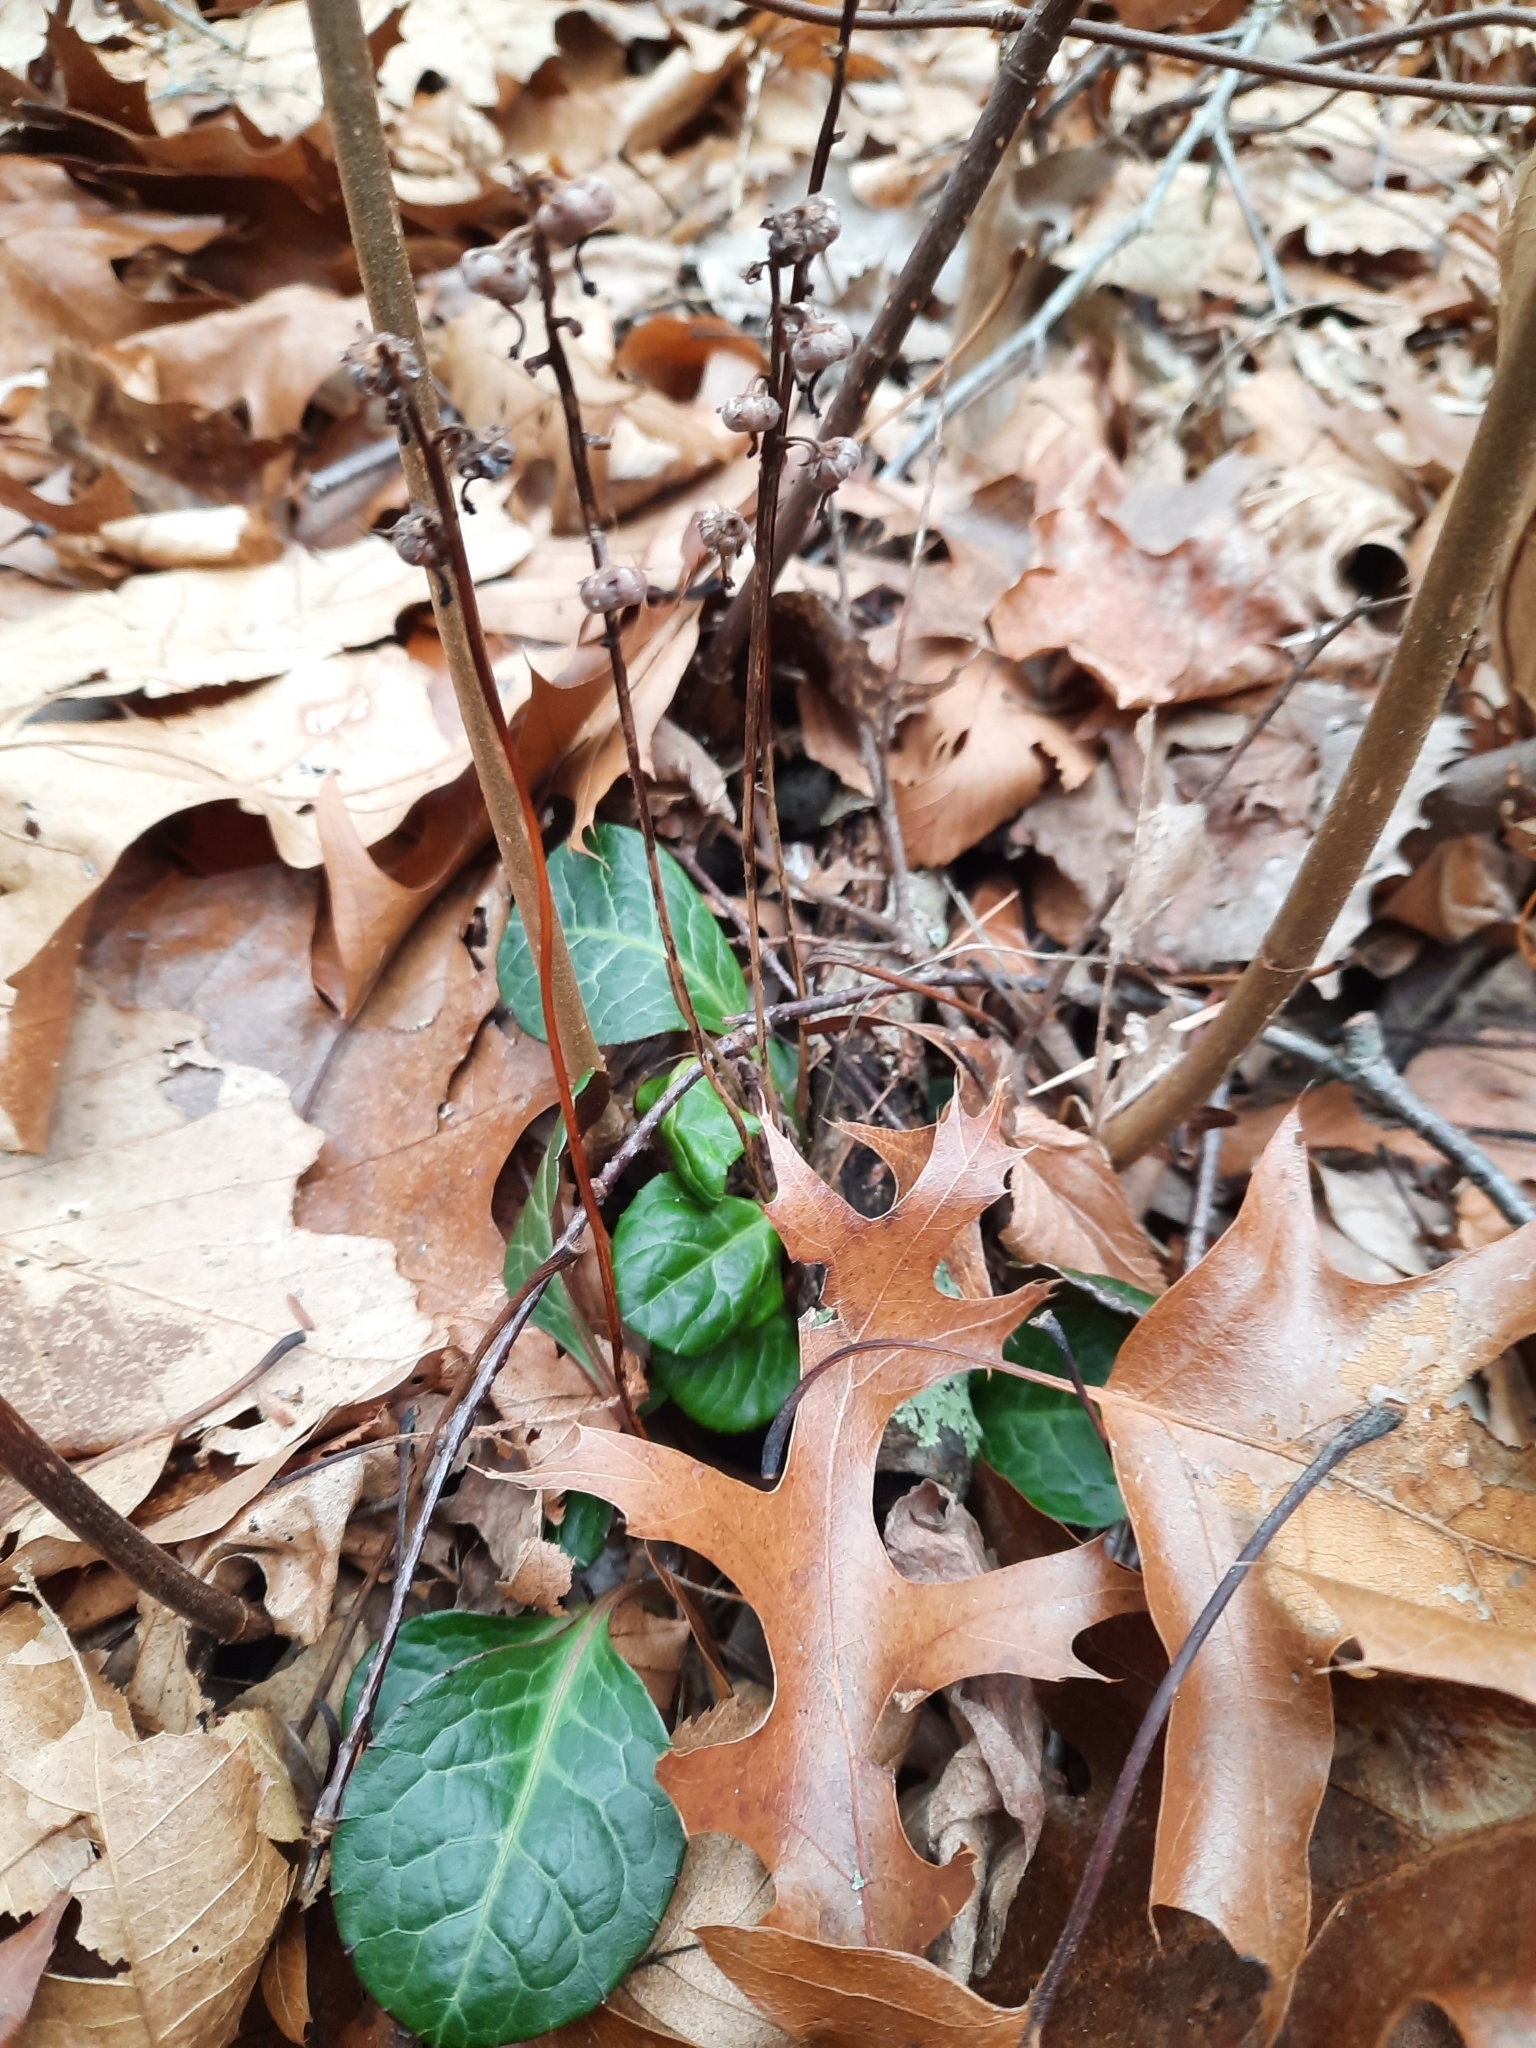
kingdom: Plantae
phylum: Tracheophyta
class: Magnoliopsida
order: Ericales
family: Ericaceae
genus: Pyrola
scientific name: Pyrola americana
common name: American wintergreen
